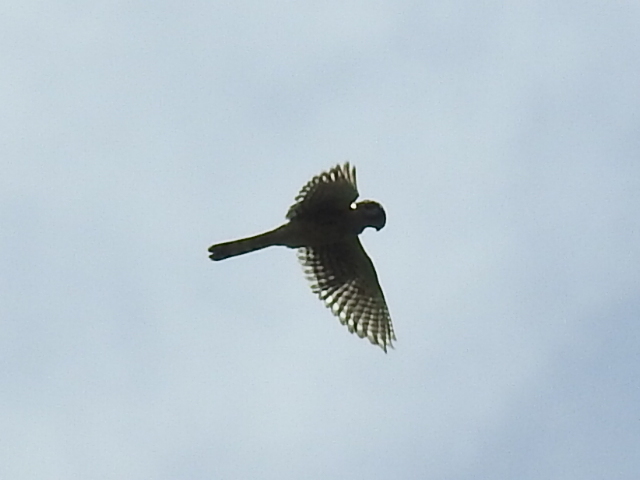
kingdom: Animalia
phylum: Chordata
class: Aves
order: Falconiformes
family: Falconidae
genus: Falco
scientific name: Falco sparverius
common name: American kestrel
